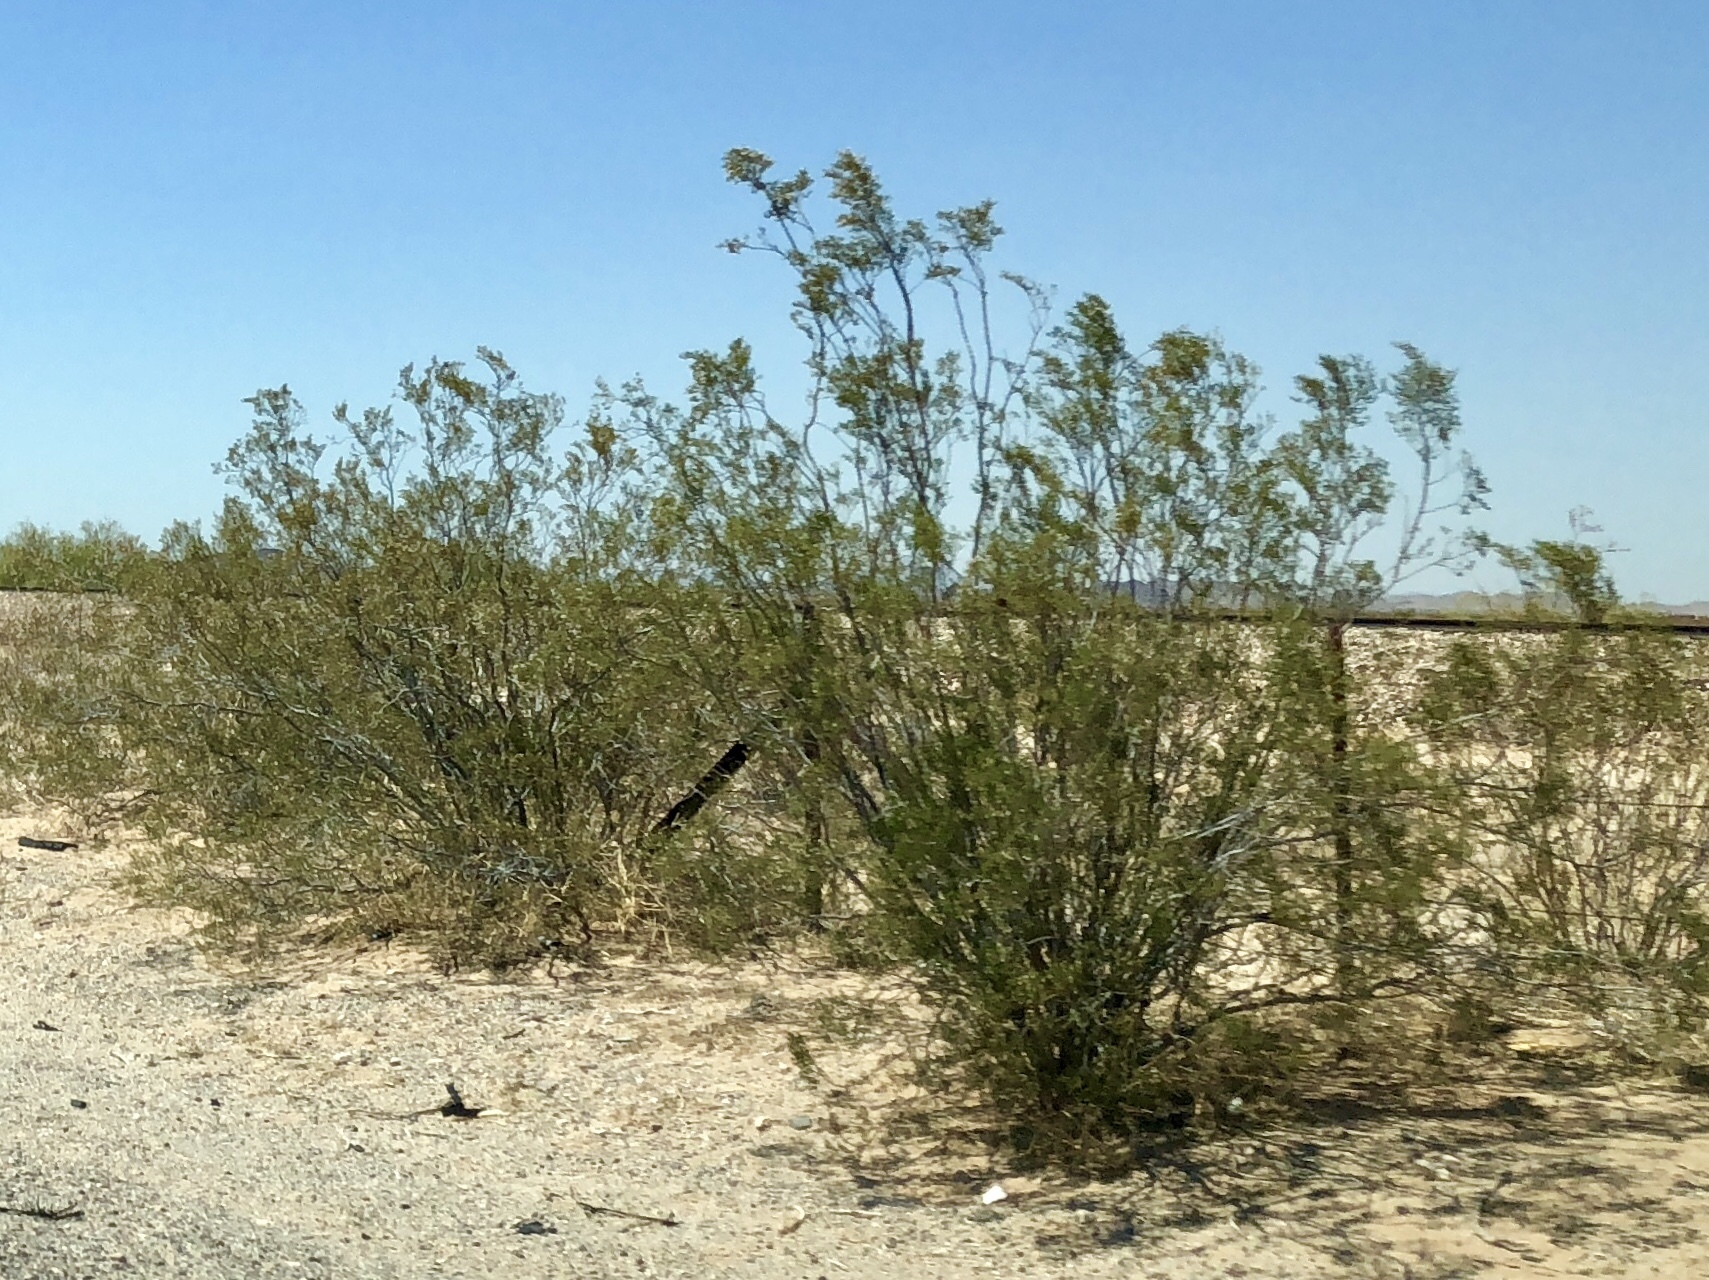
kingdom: Plantae
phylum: Tracheophyta
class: Magnoliopsida
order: Zygophyllales
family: Zygophyllaceae
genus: Larrea
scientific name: Larrea tridentata
